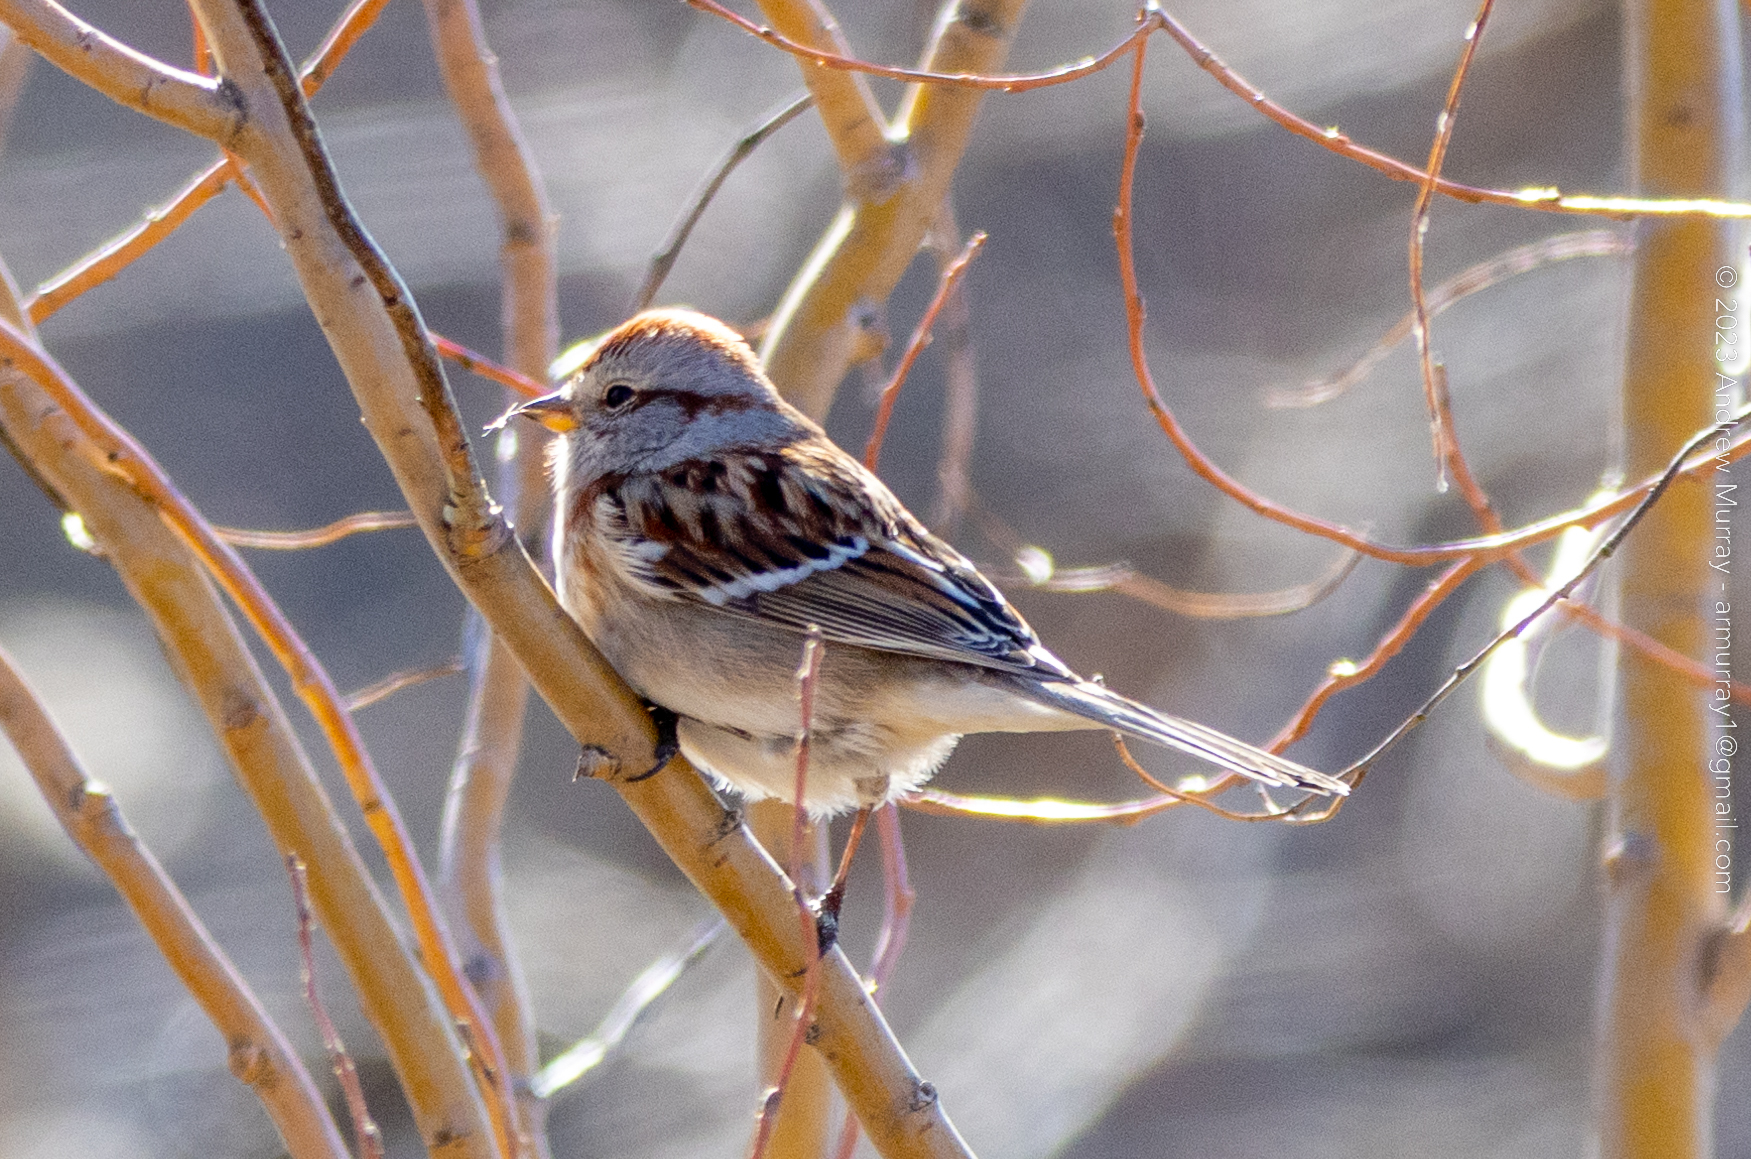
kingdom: Animalia
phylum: Chordata
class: Aves
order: Passeriformes
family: Passerellidae
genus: Spizelloides
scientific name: Spizelloides arborea
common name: American tree sparrow
